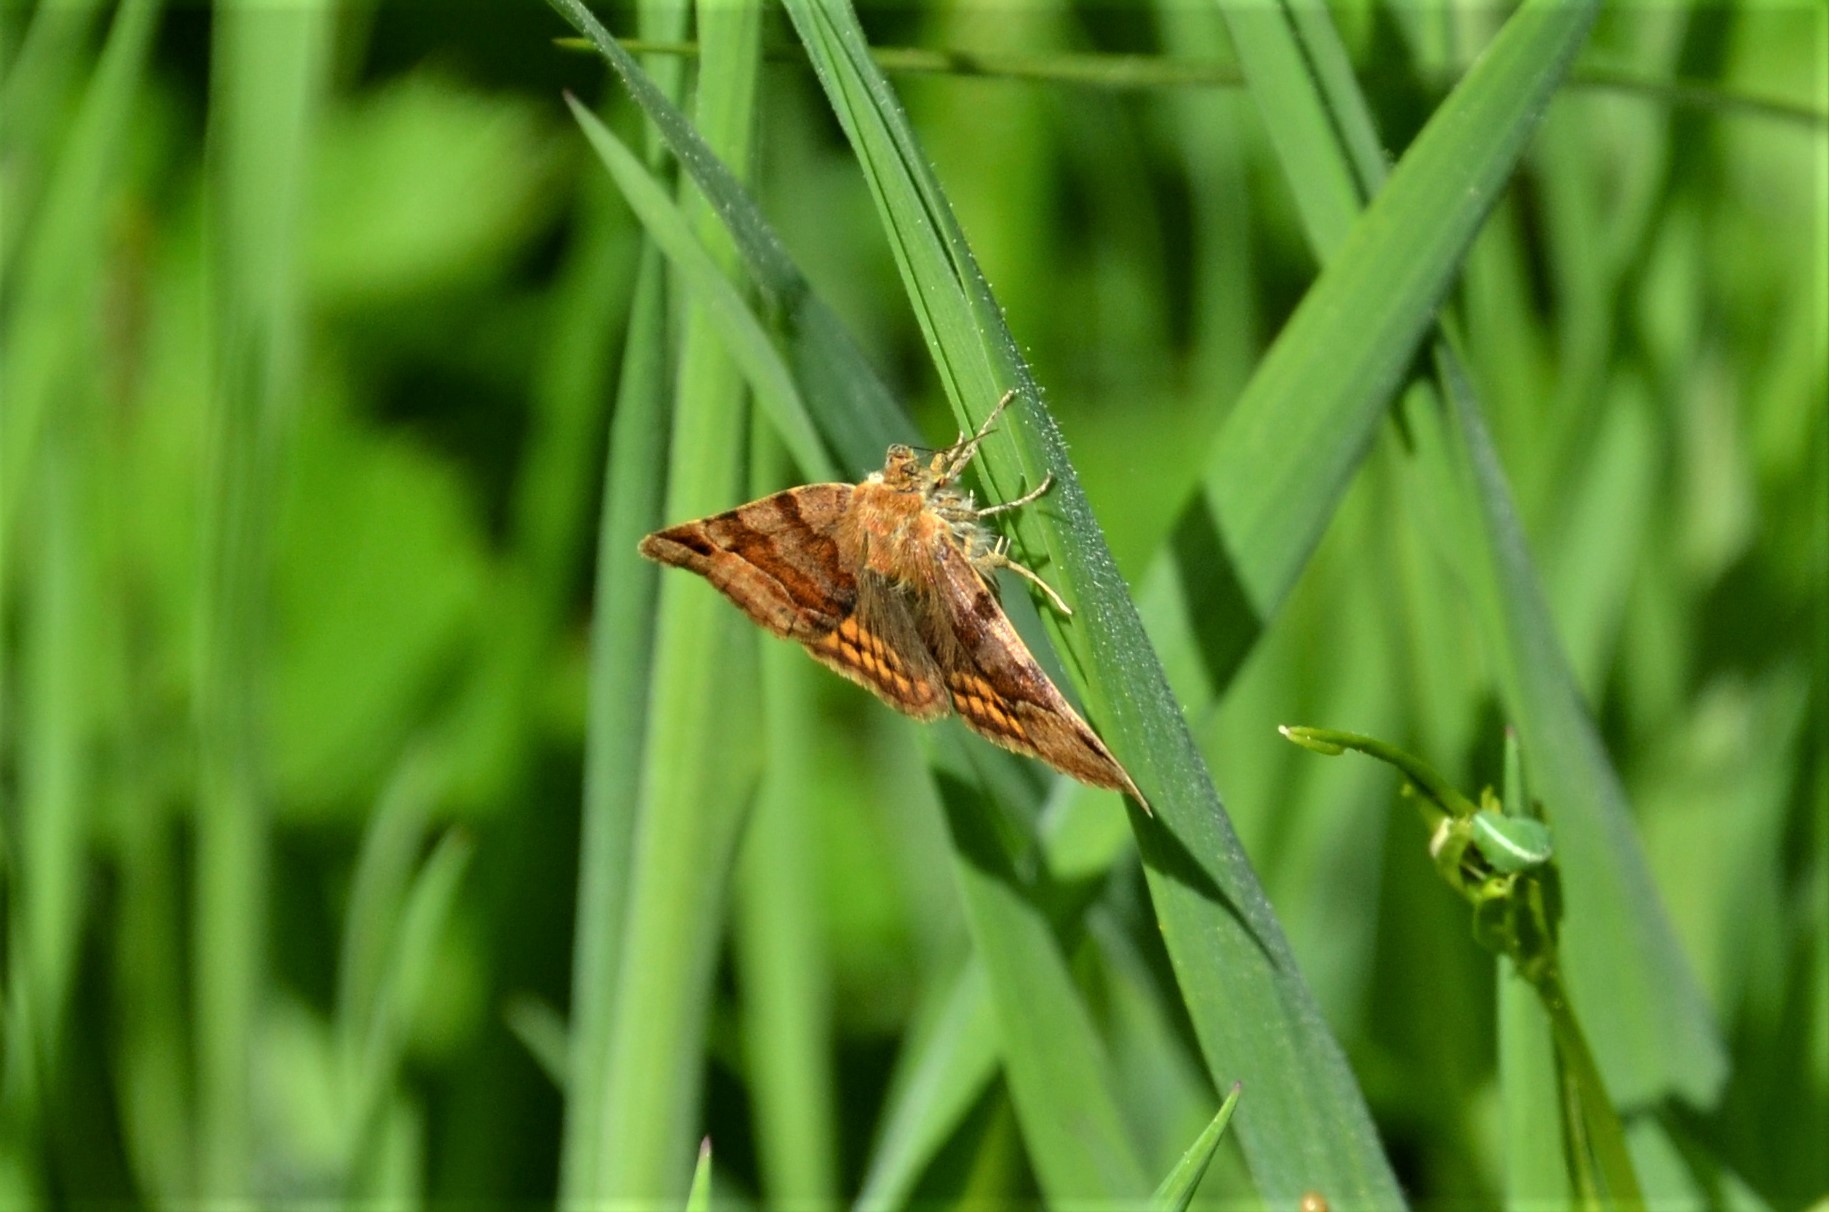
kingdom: Animalia
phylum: Arthropoda
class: Insecta
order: Lepidoptera
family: Erebidae
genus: Euclidia
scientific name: Euclidia glyphica
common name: Burnet companion
